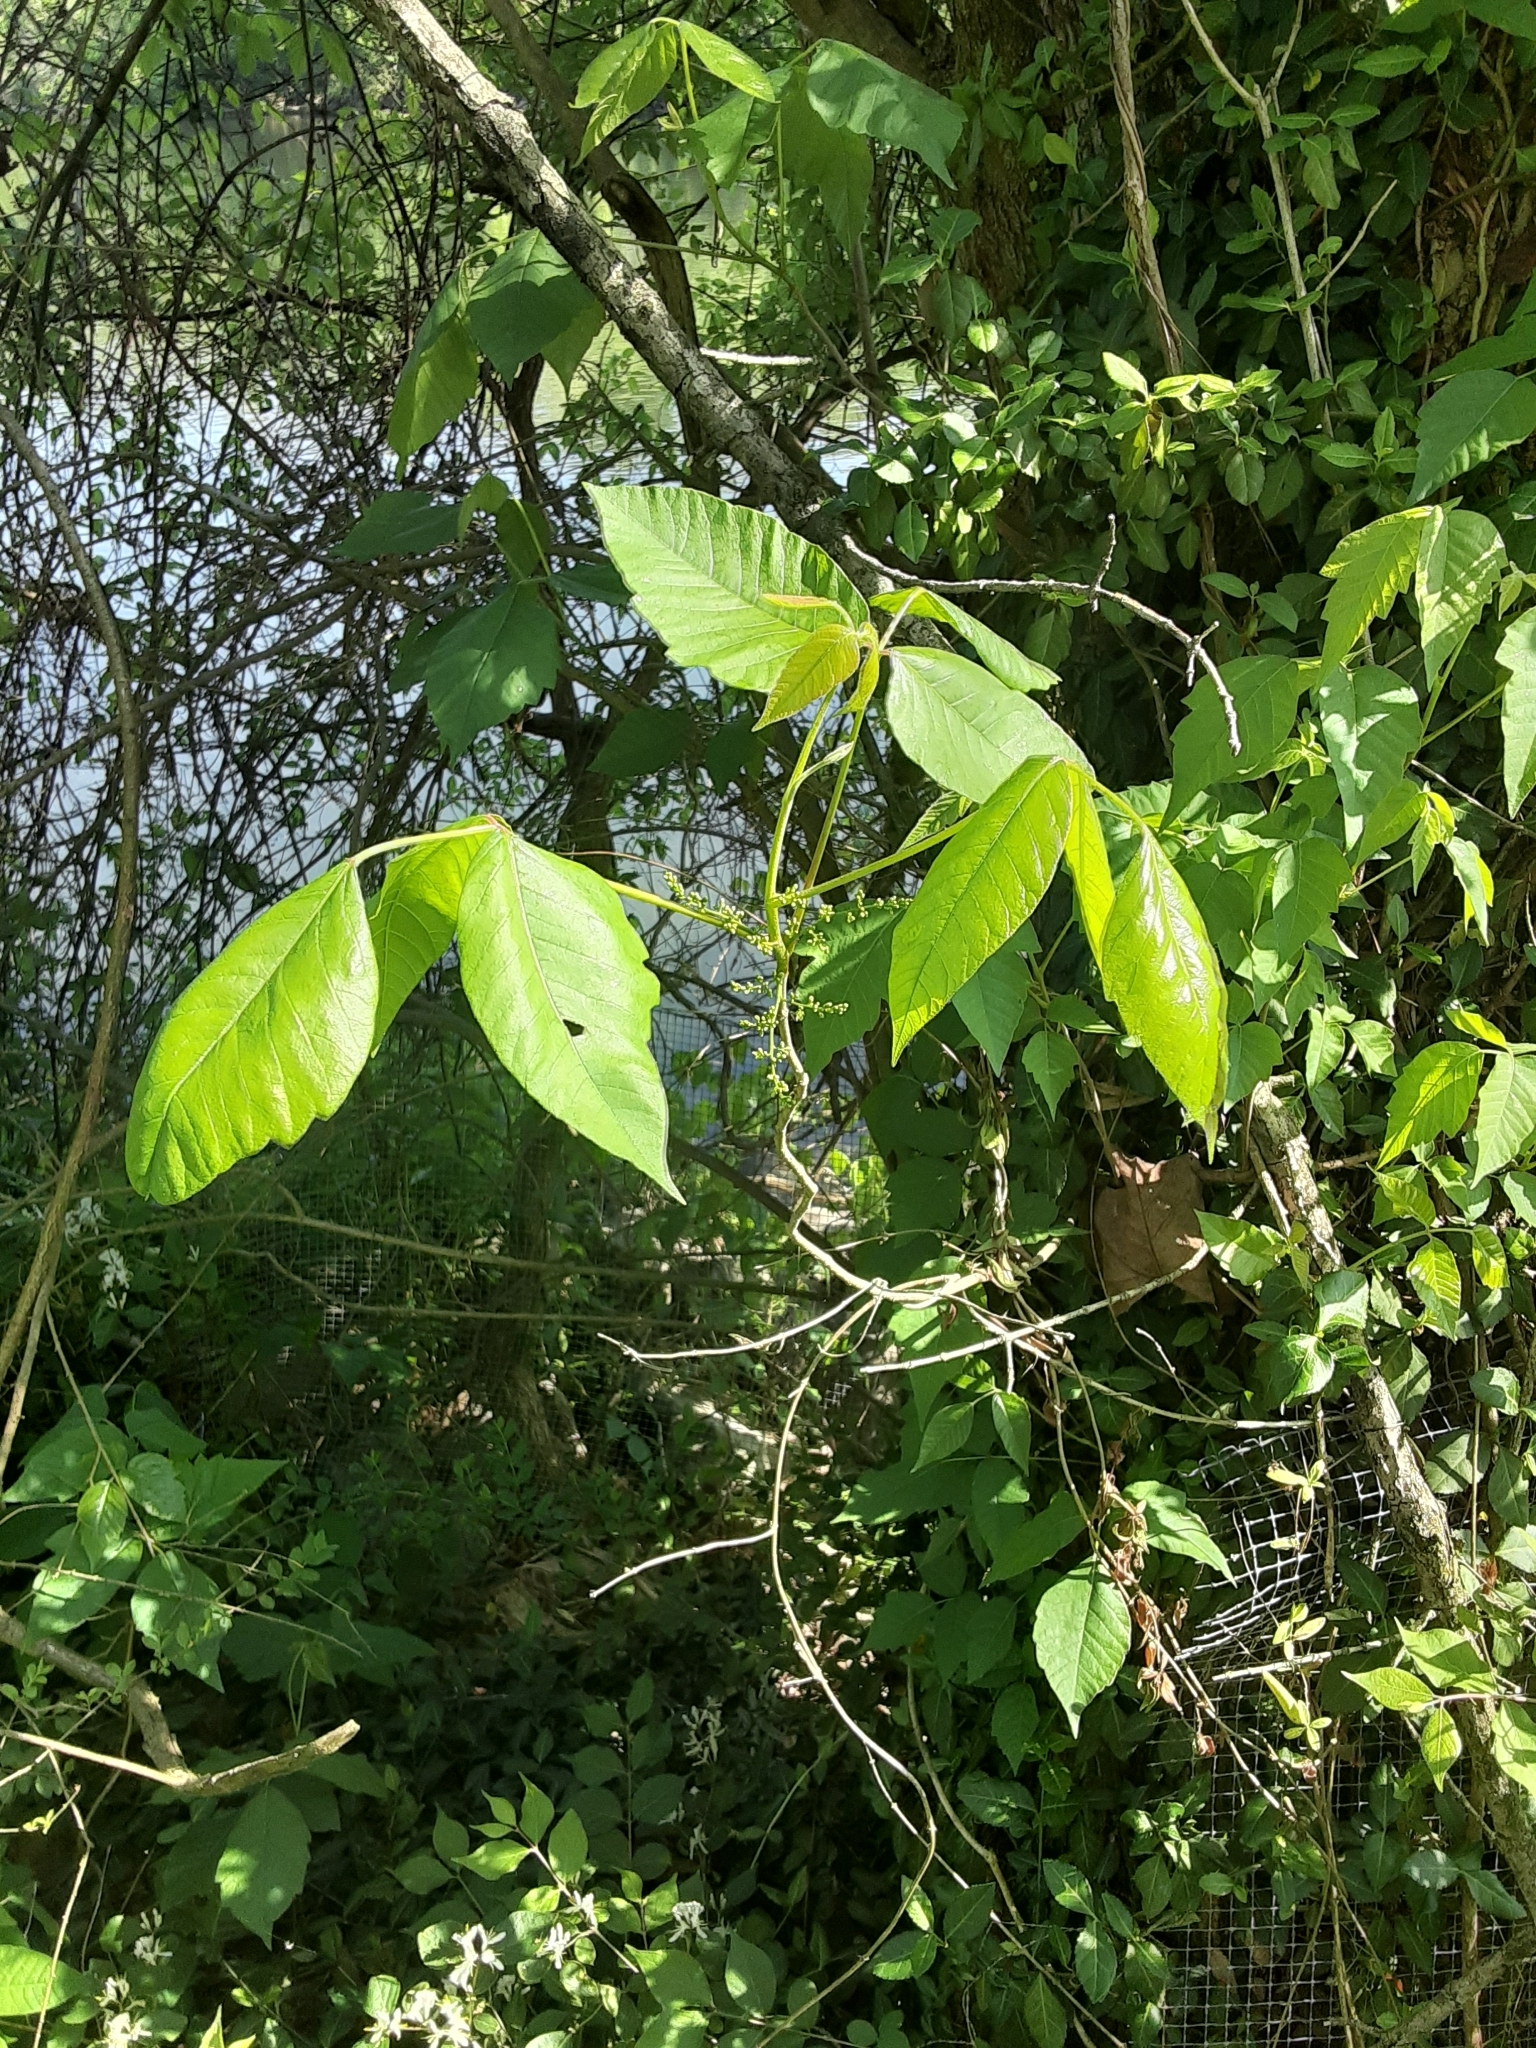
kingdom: Plantae
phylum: Tracheophyta
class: Magnoliopsida
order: Sapindales
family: Anacardiaceae
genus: Toxicodendron
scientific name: Toxicodendron radicans
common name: Poison ivy
